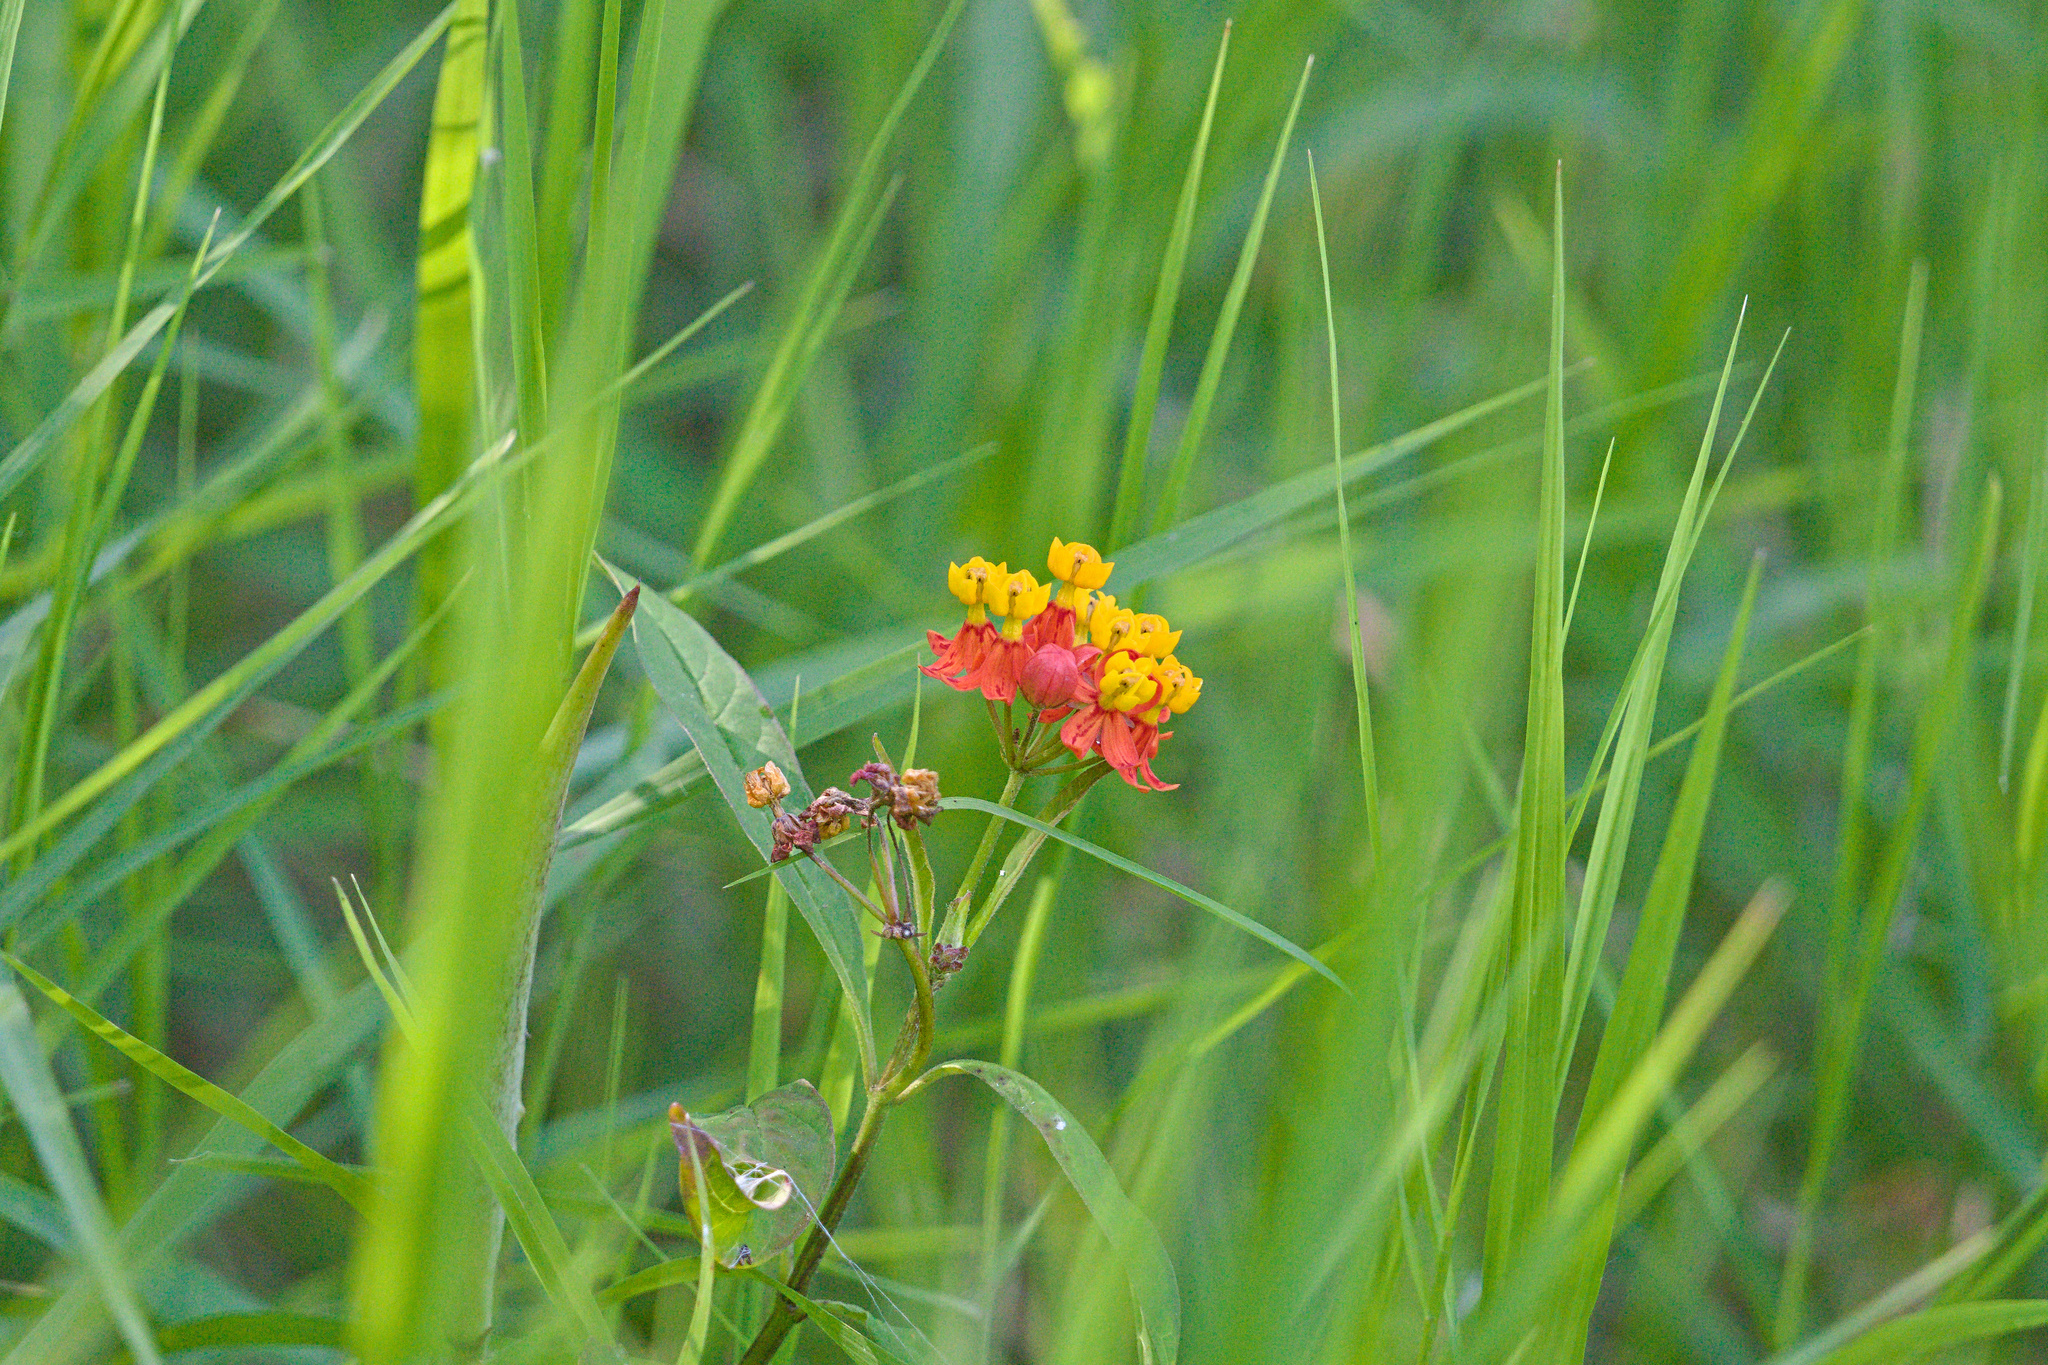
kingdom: Plantae
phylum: Tracheophyta
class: Magnoliopsida
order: Gentianales
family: Apocynaceae
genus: Asclepias
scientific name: Asclepias curassavica
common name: Bloodflower
